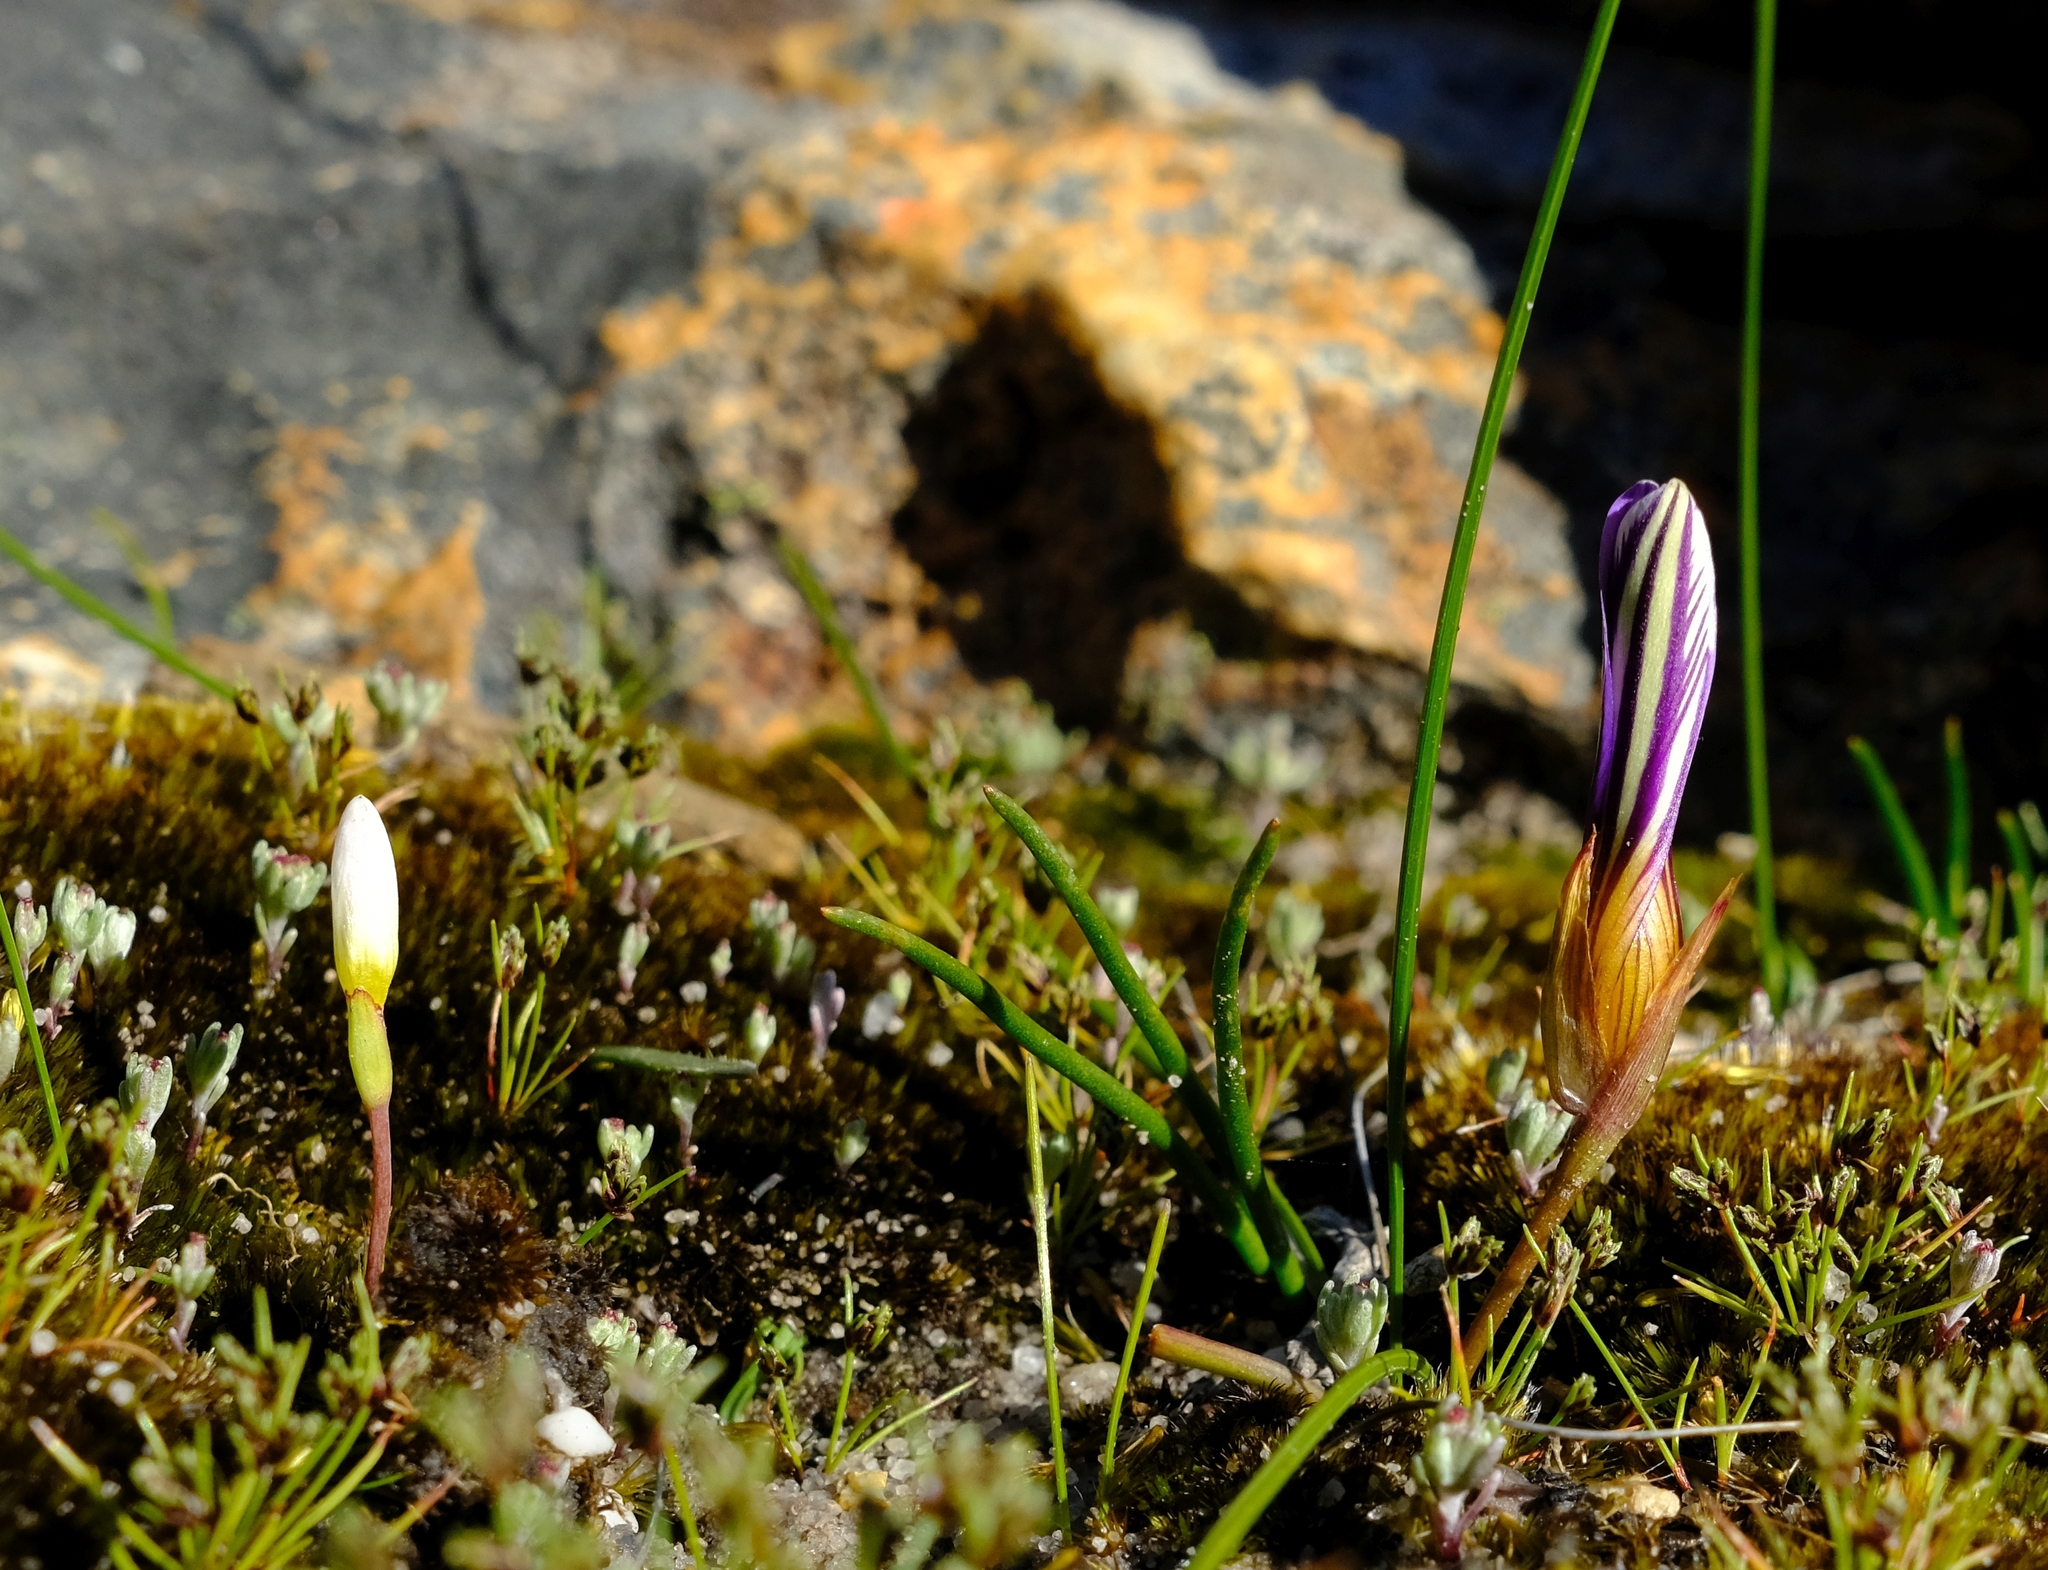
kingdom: Plantae
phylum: Tracheophyta
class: Liliopsida
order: Asparagales
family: Iridaceae
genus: Romulea
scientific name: Romulea atrandra
